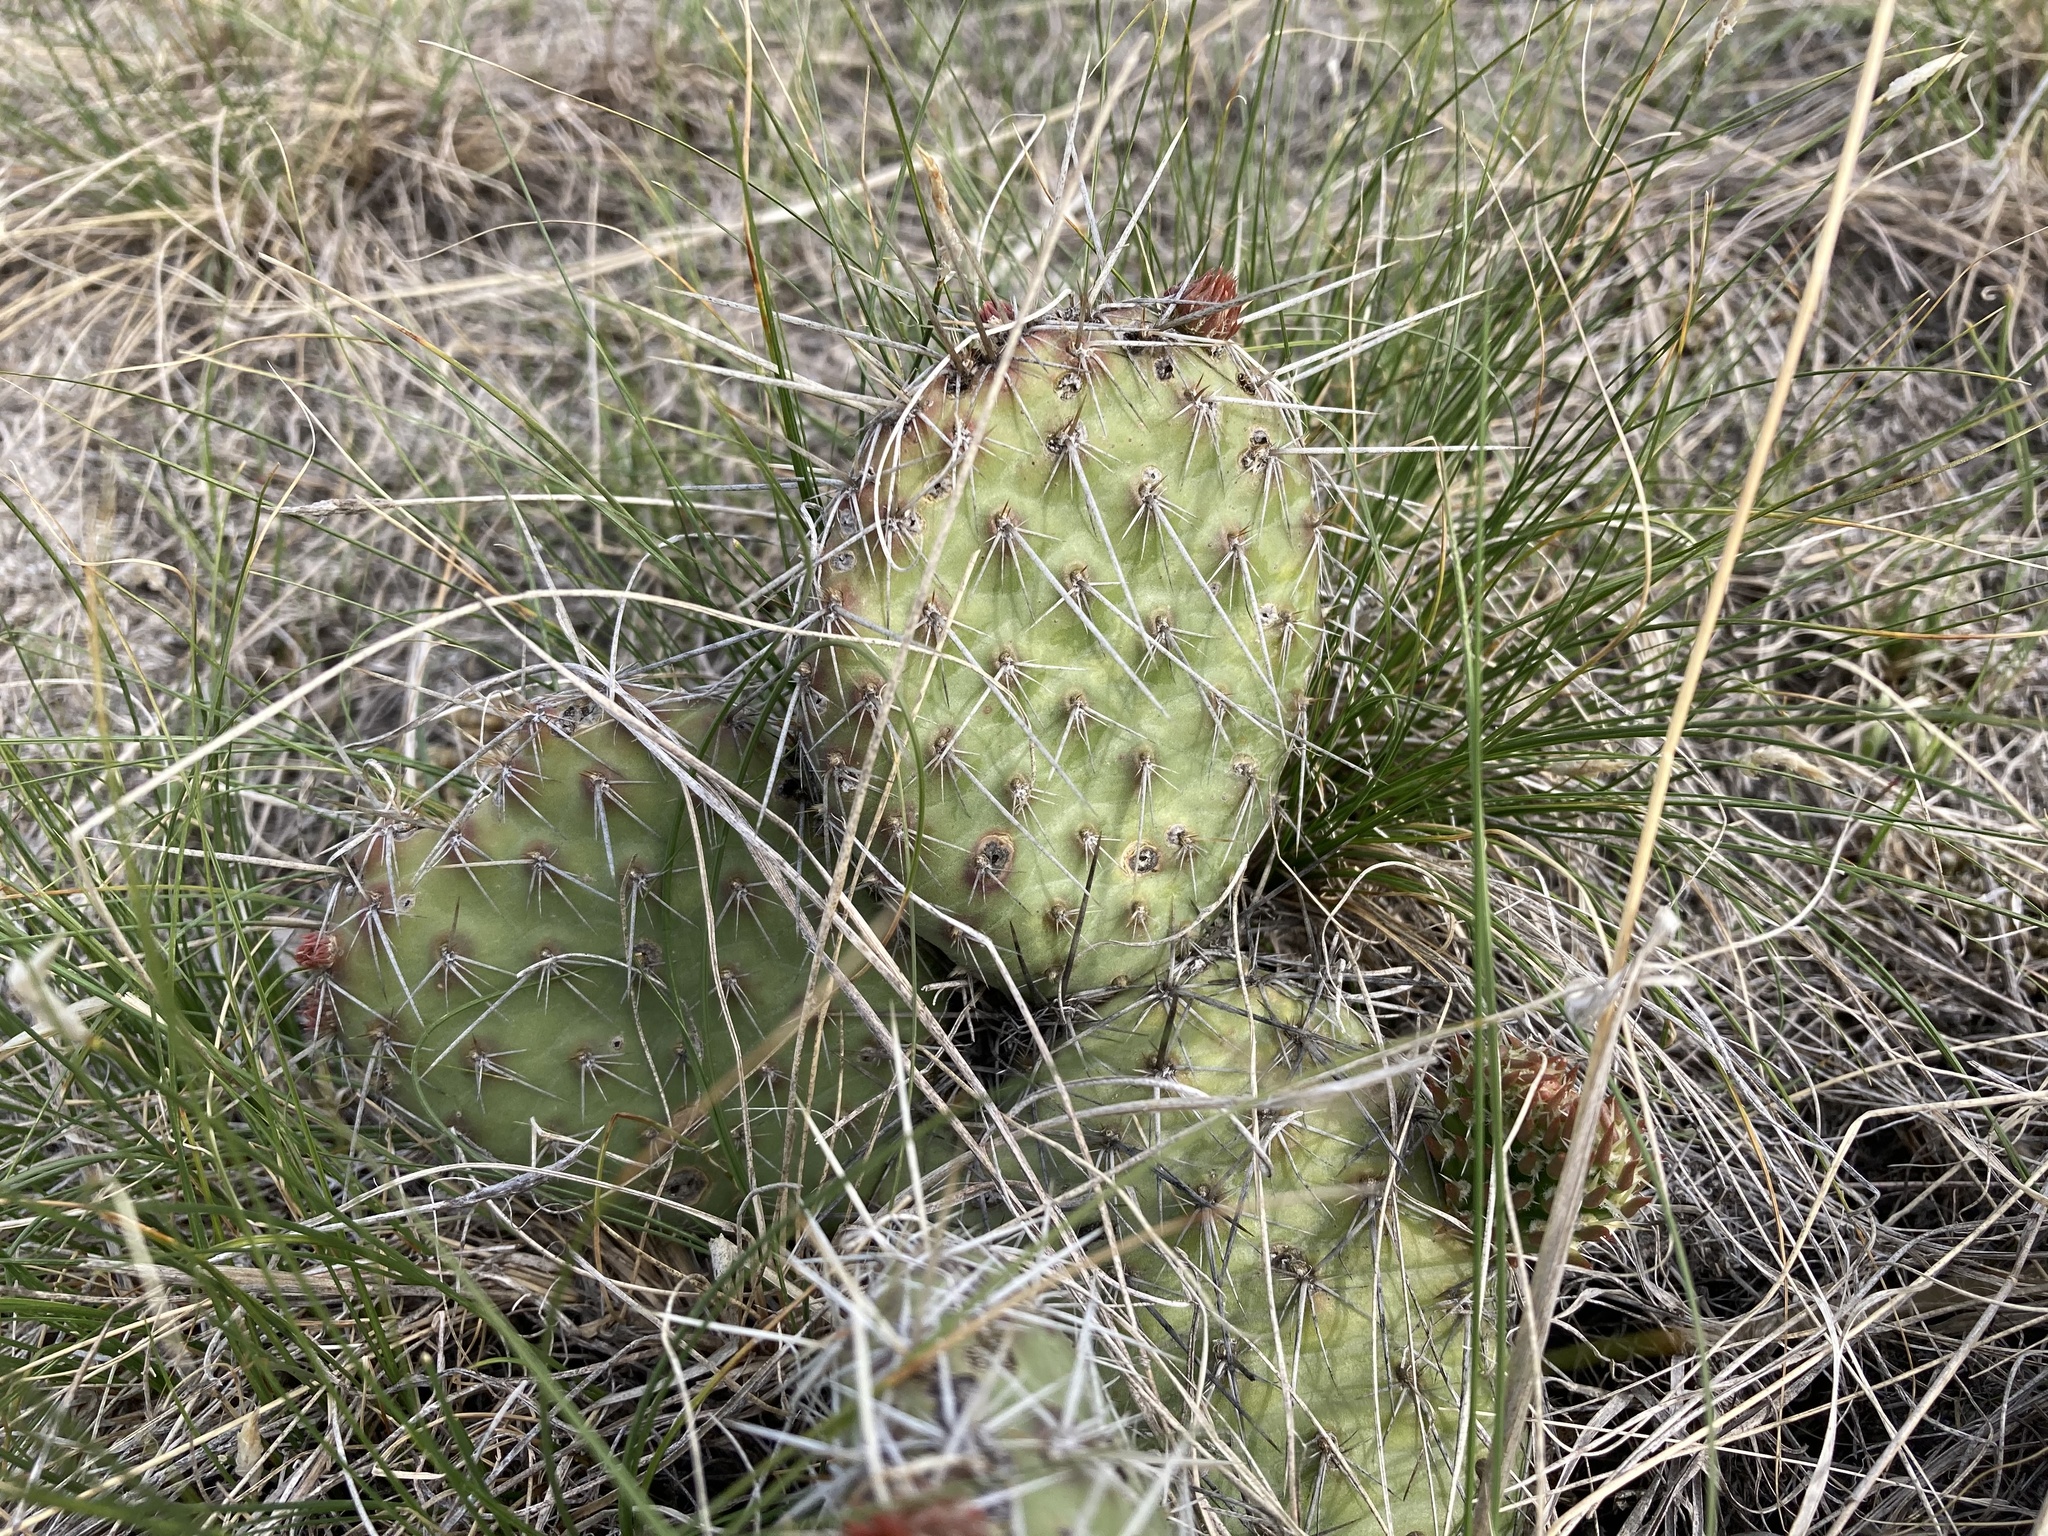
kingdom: Plantae
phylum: Tracheophyta
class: Magnoliopsida
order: Caryophyllales
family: Cactaceae
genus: Opuntia
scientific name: Opuntia polyacantha
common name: Plains prickly-pear
